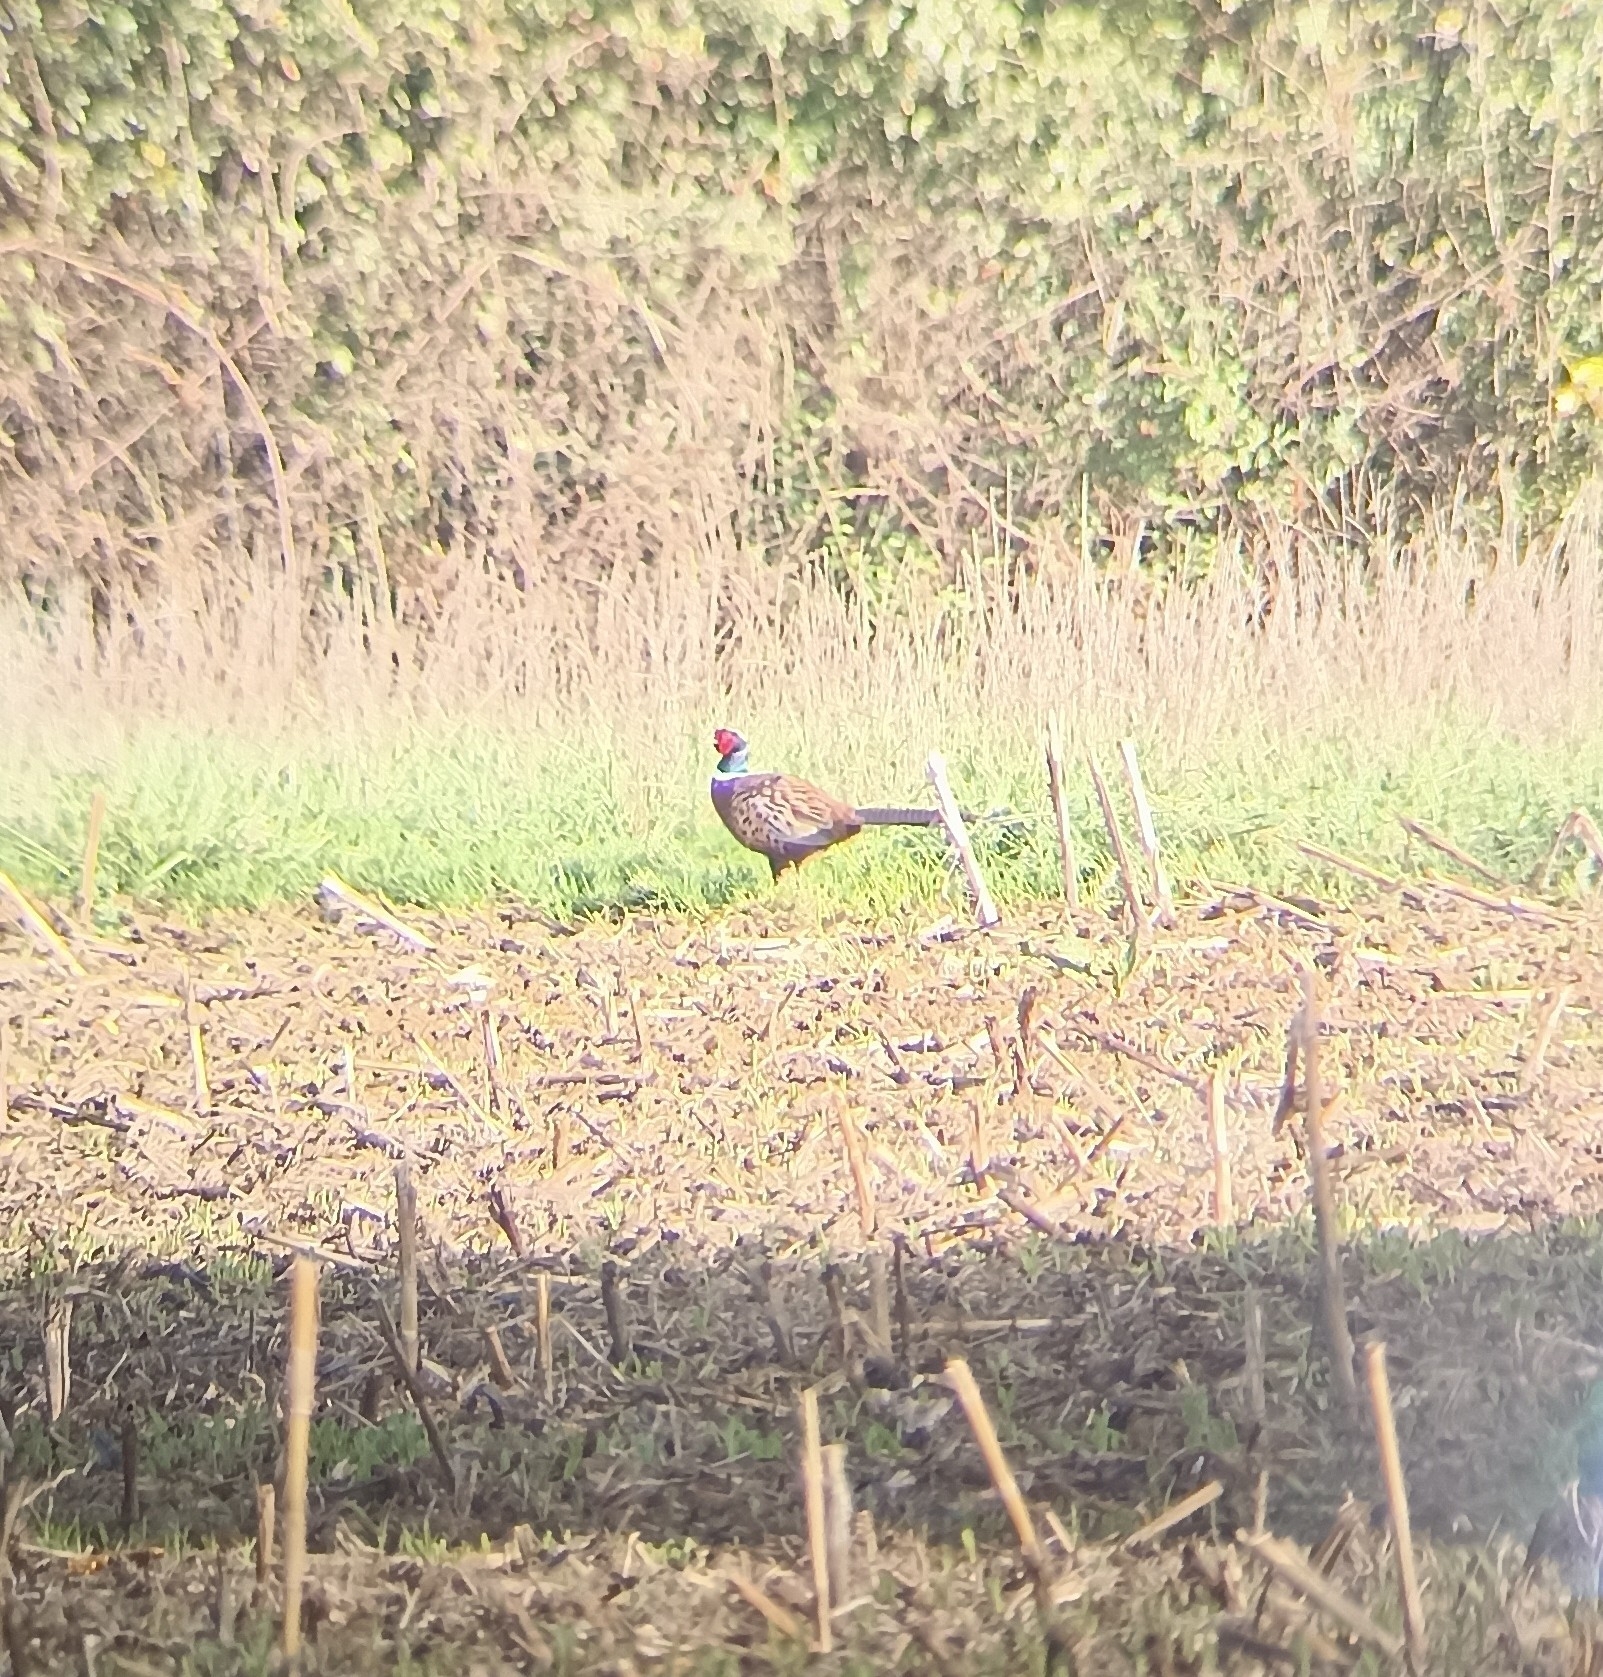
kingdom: Animalia
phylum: Chordata
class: Aves
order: Galliformes
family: Phasianidae
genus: Phasianus
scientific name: Phasianus colchicus
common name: Common pheasant
